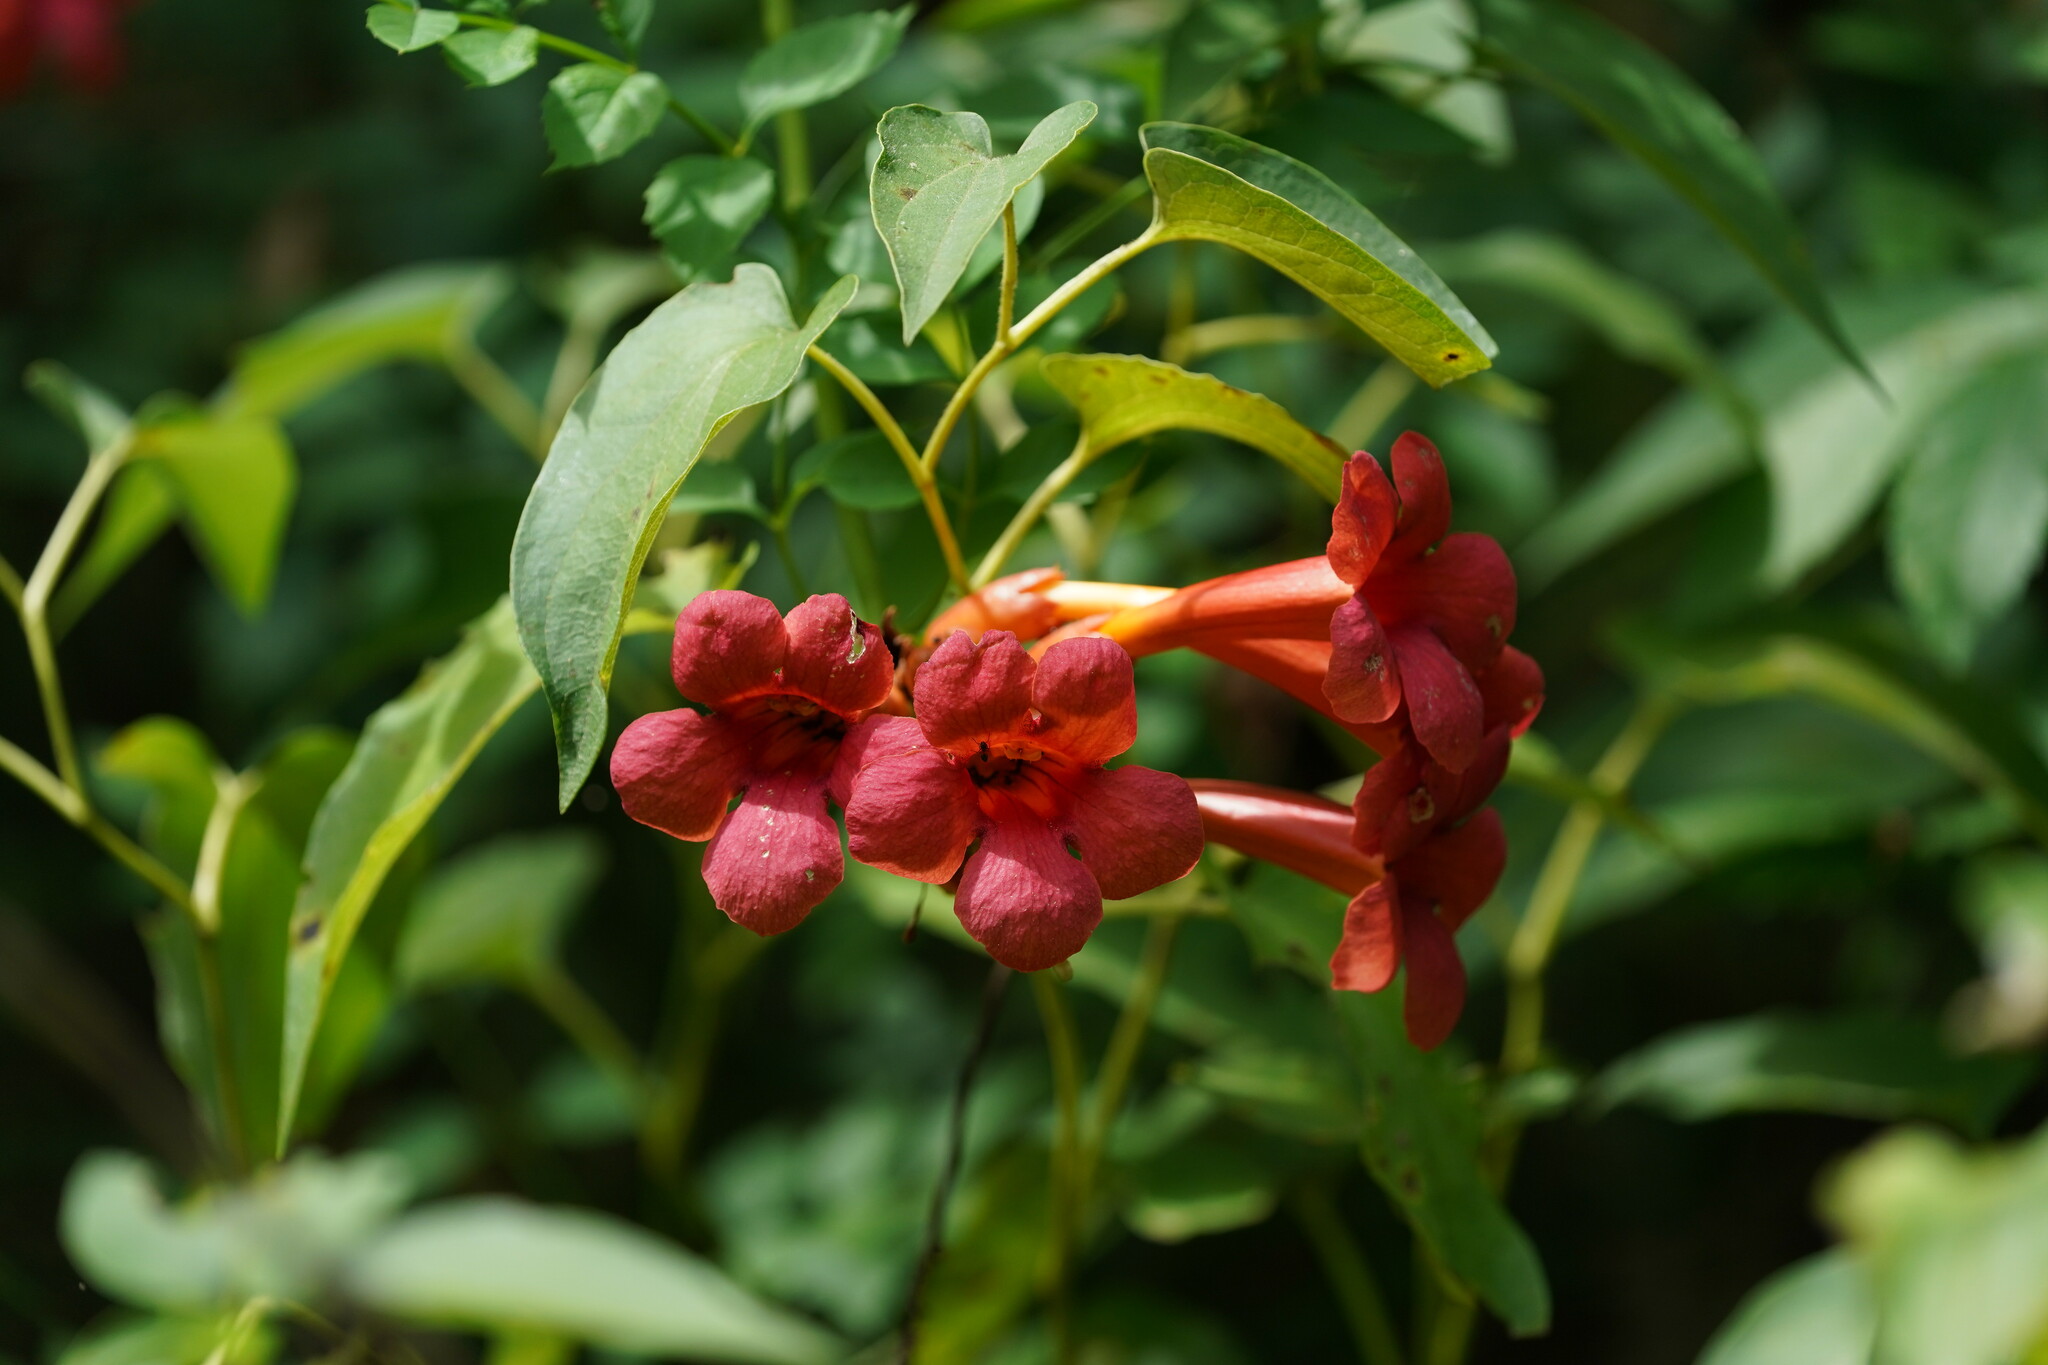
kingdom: Plantae
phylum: Tracheophyta
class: Magnoliopsida
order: Lamiales
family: Bignoniaceae
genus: Campsis
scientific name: Campsis radicans
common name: Trumpet-creeper
